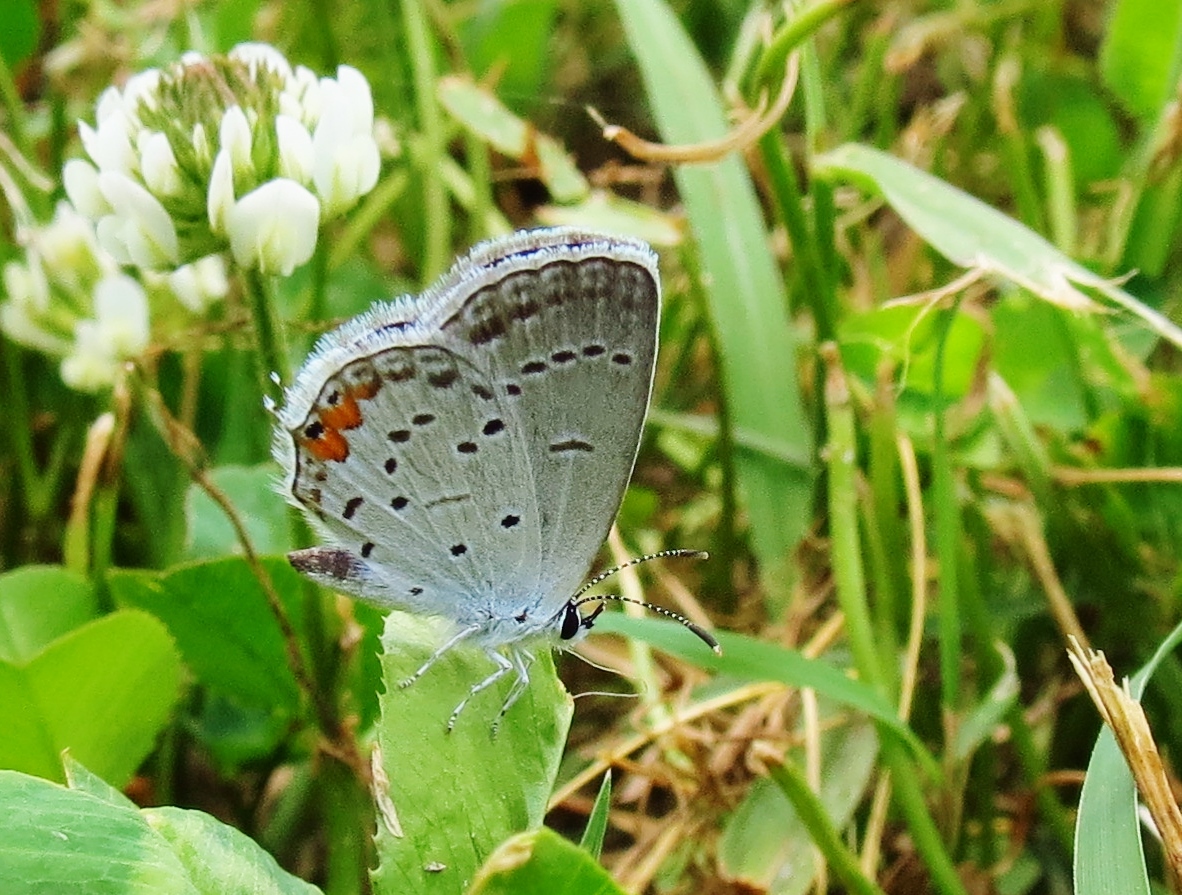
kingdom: Animalia
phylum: Arthropoda
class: Insecta
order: Lepidoptera
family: Lycaenidae
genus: Elkalyce
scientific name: Elkalyce comyntas
